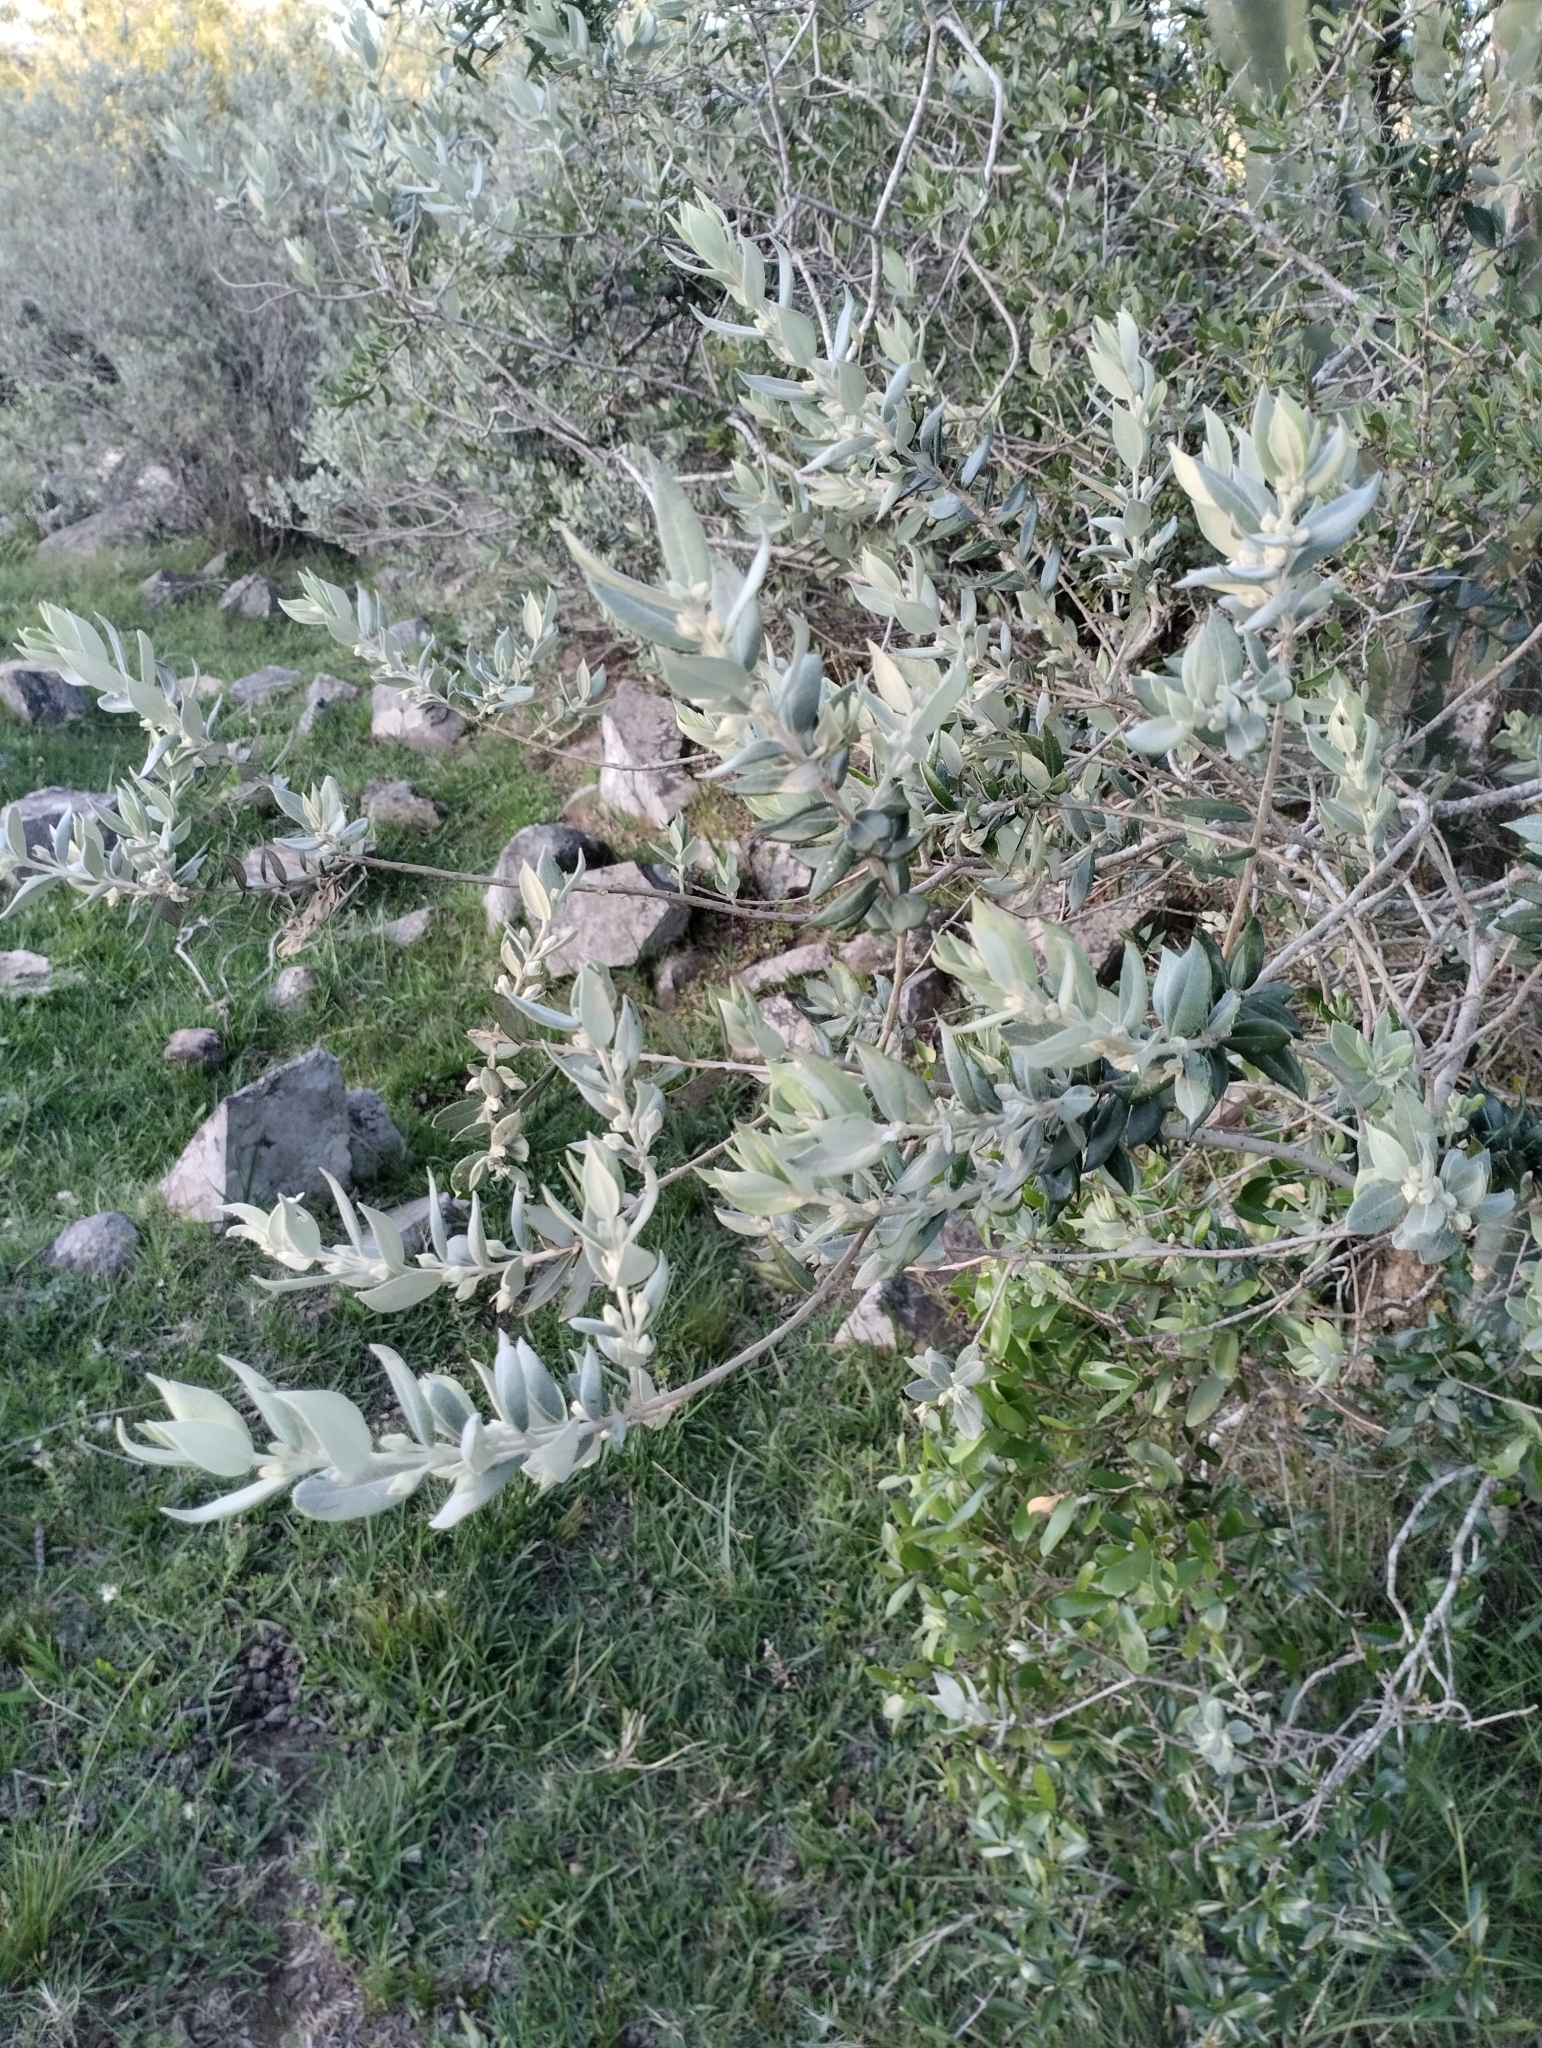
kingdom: Plantae
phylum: Tracheophyta
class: Magnoliopsida
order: Myrtales
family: Myrtaceae
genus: Myrceugenia
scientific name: Myrceugenia myrtoides
